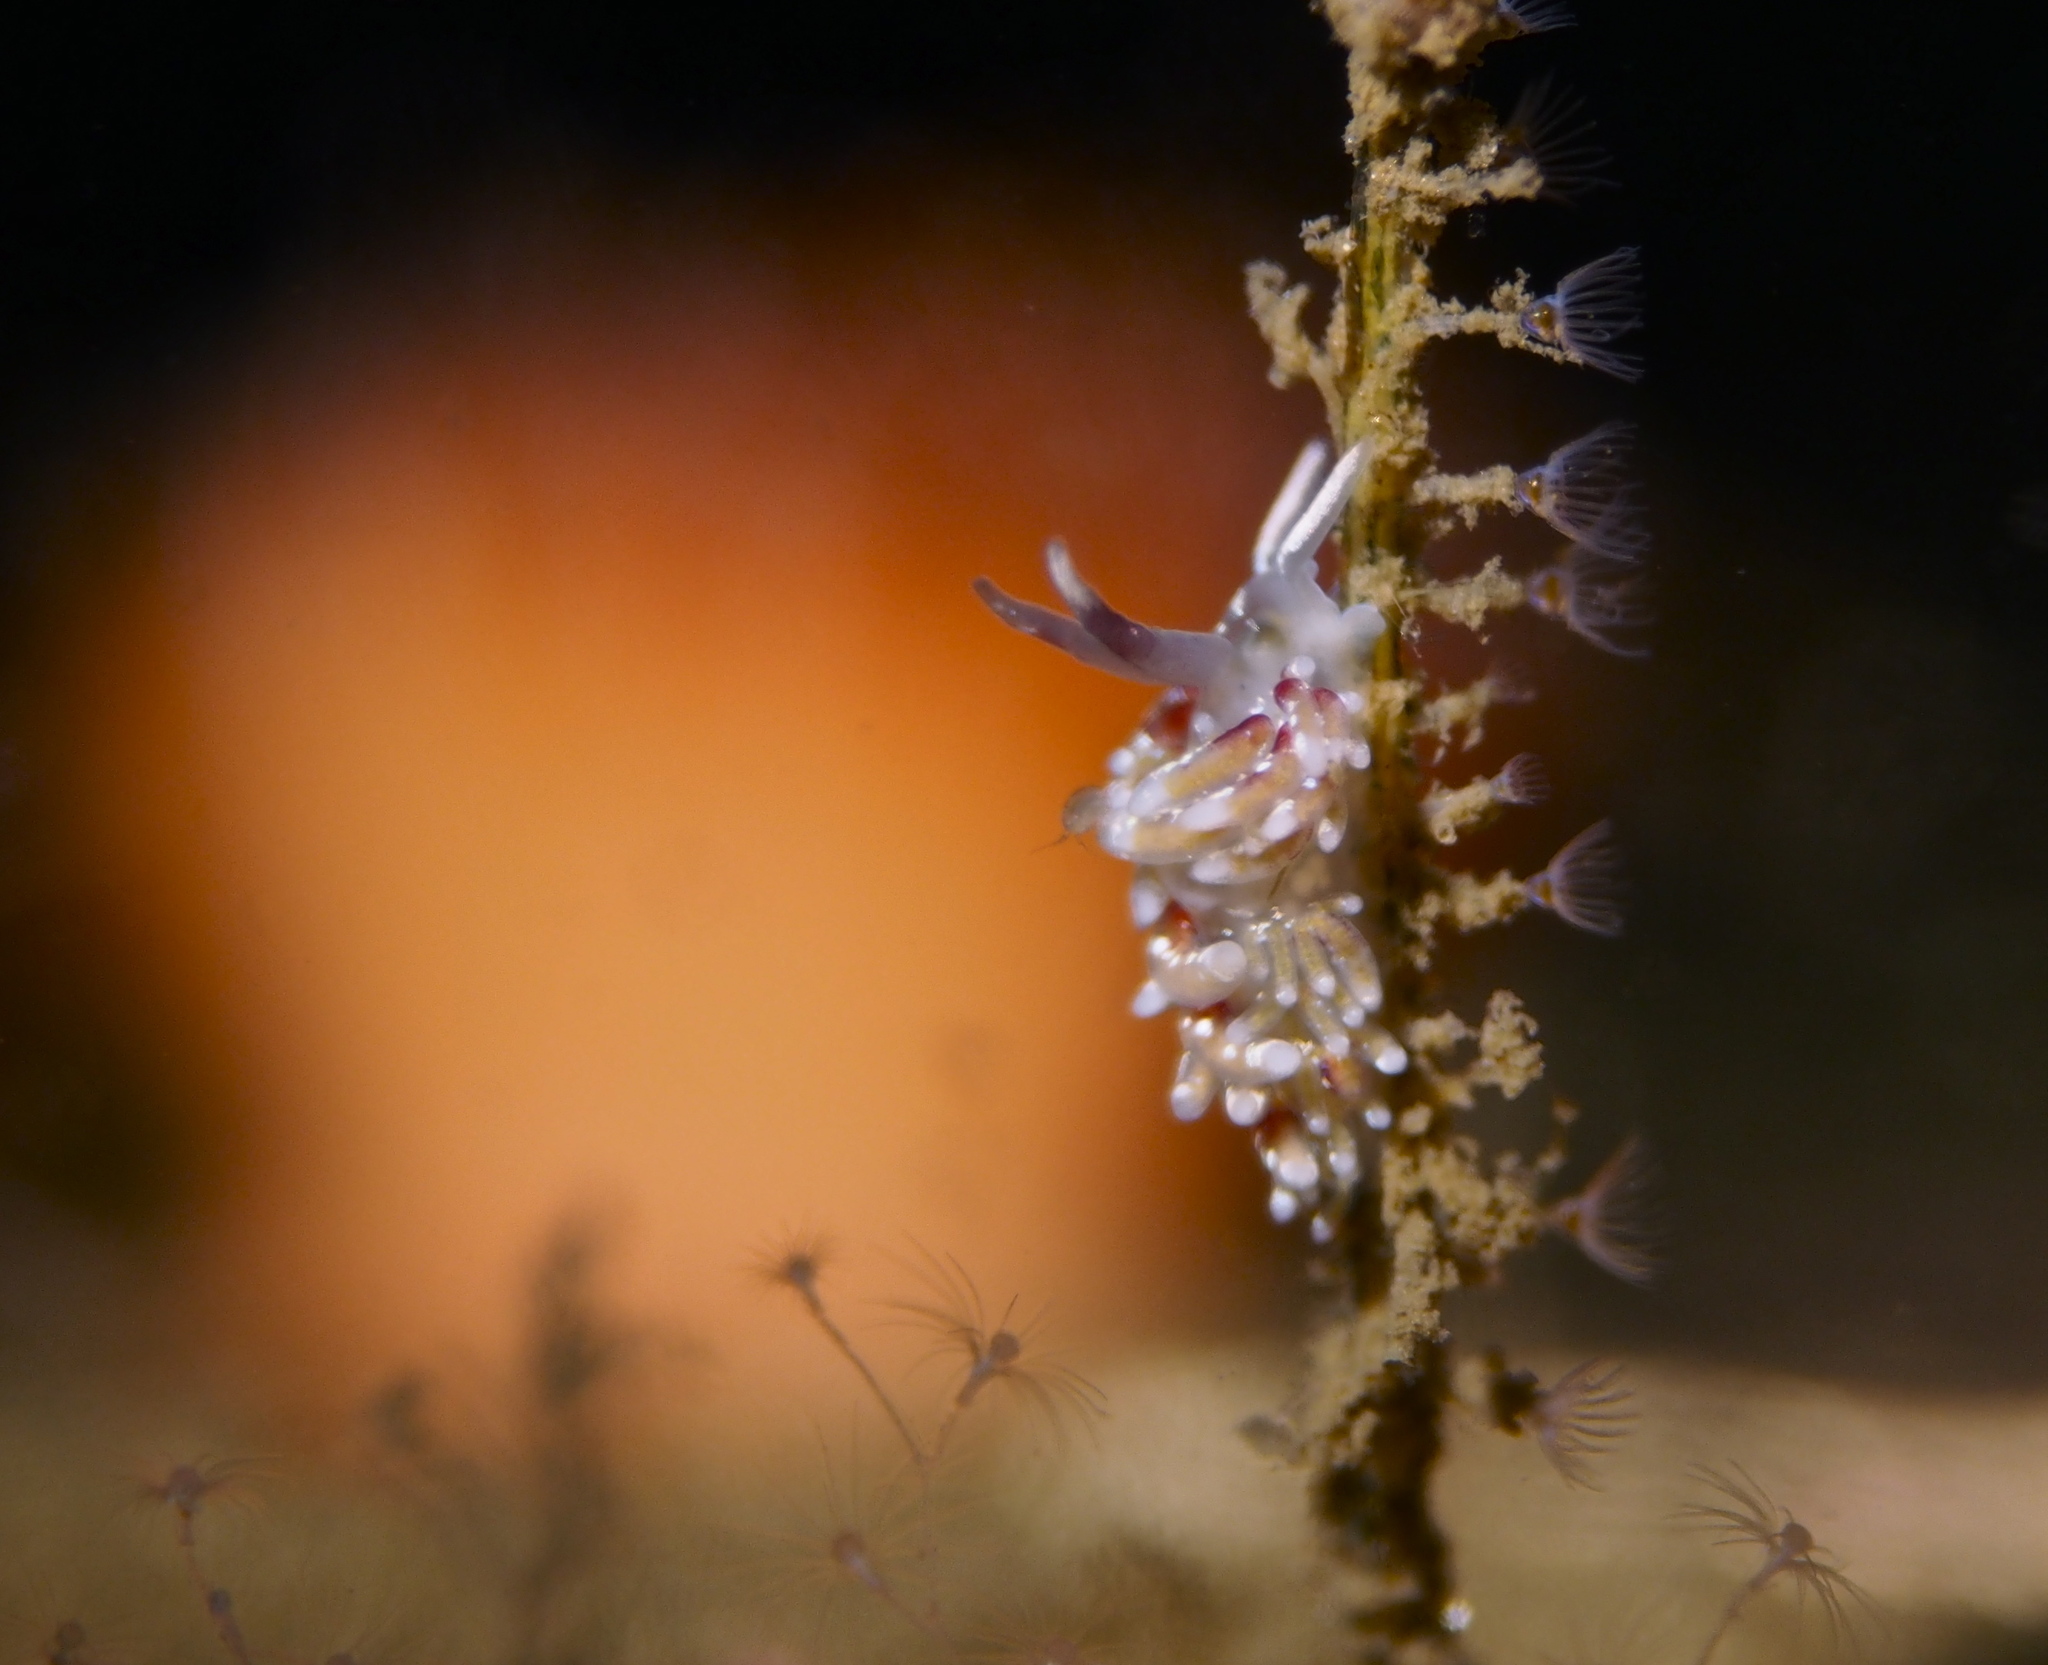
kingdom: Animalia
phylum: Mollusca
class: Gastropoda
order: Nudibranchia
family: Trinchesiidae
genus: Rubramoena
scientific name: Rubramoena rubescens
